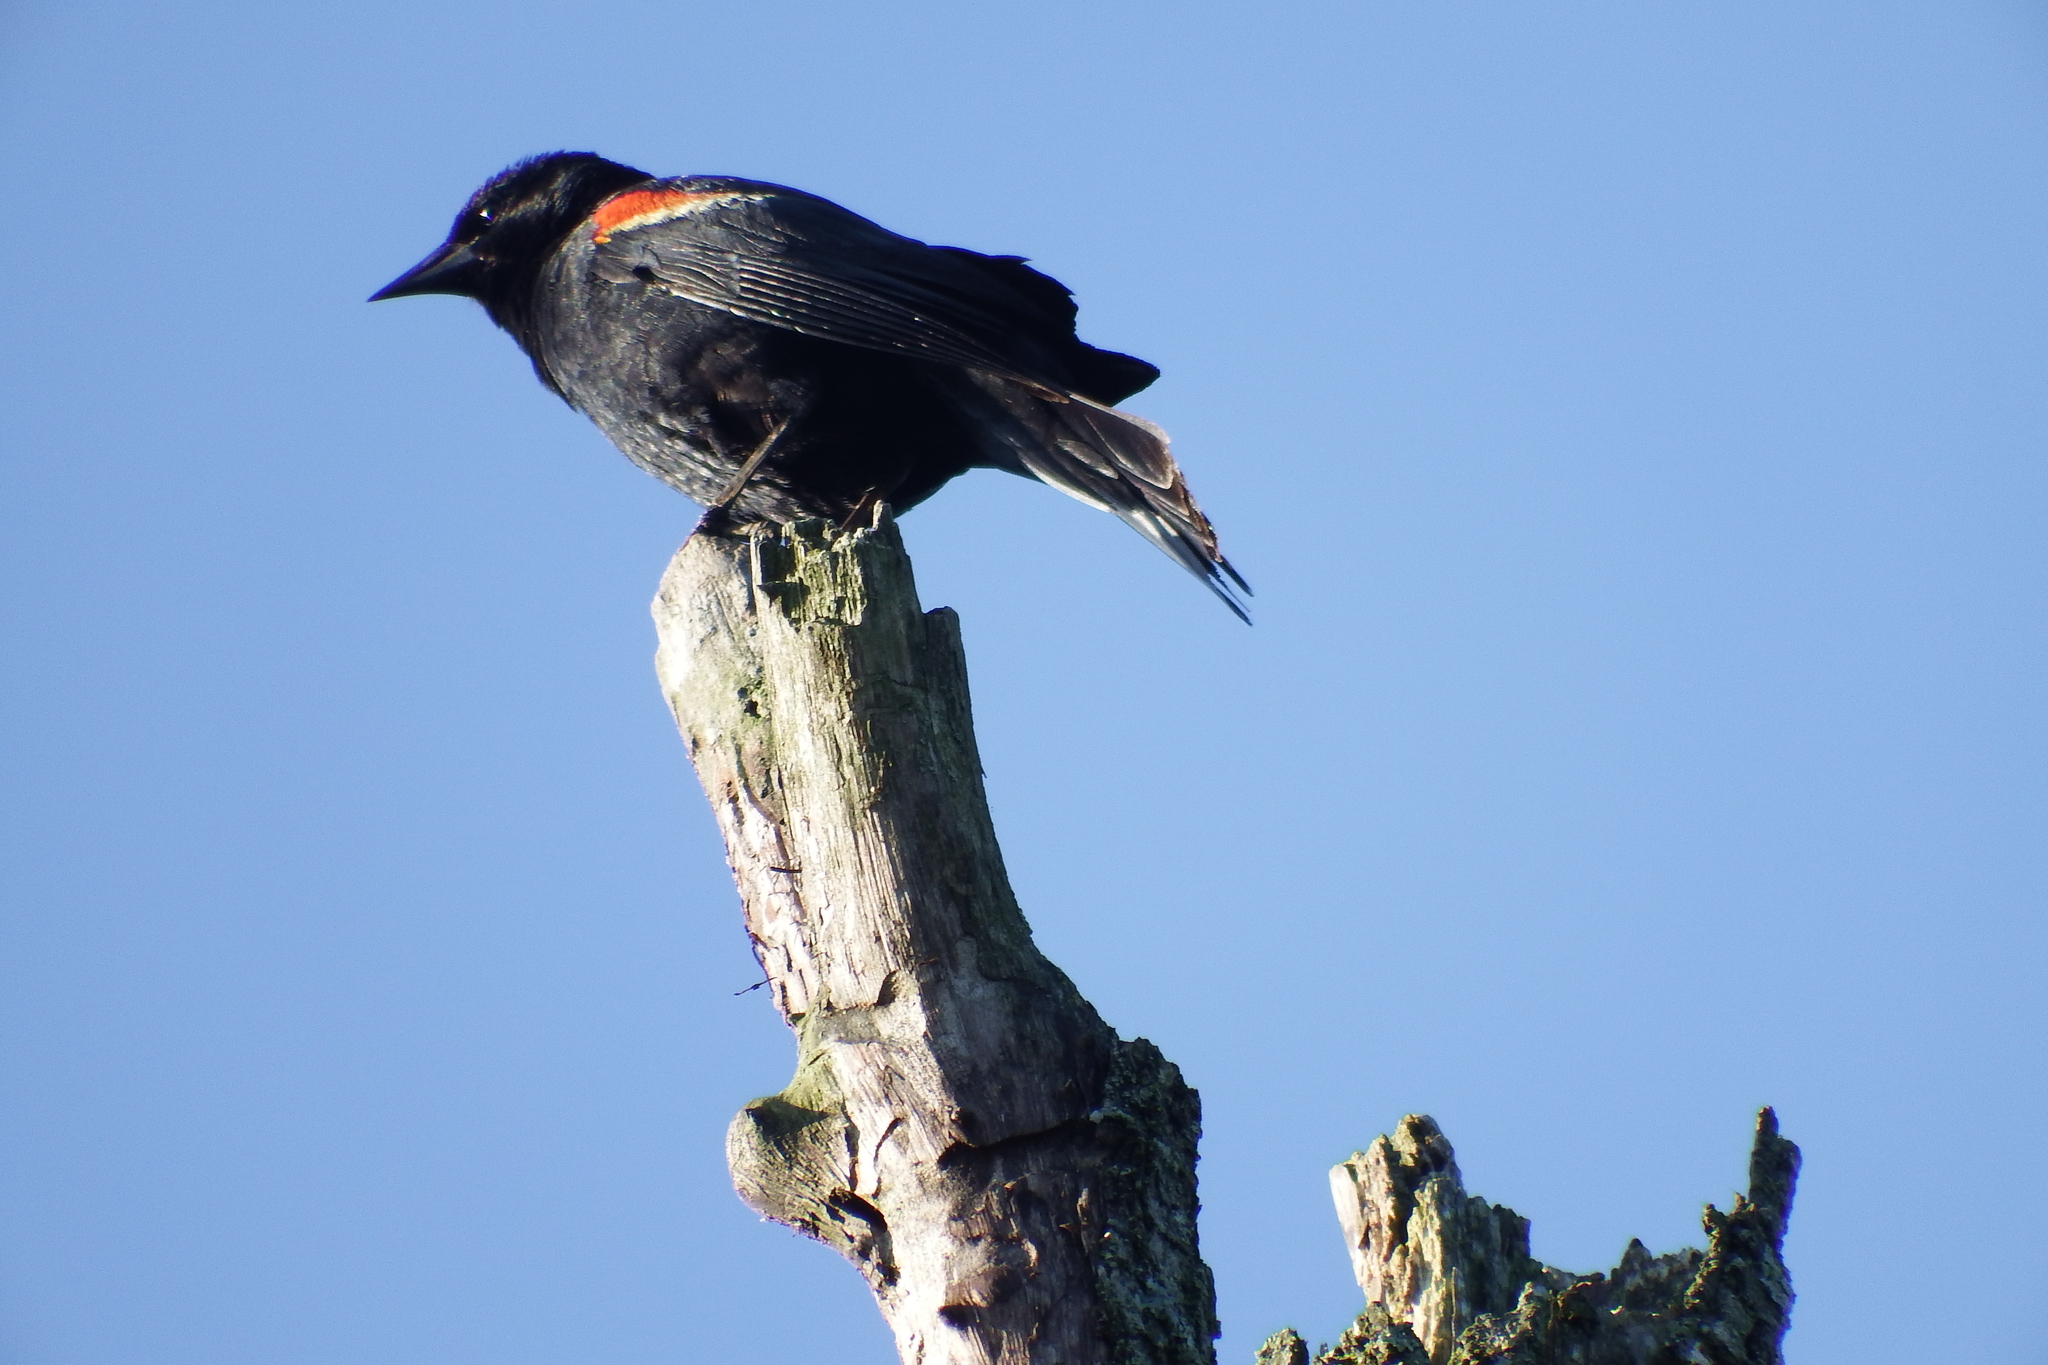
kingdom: Animalia
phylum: Chordata
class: Aves
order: Passeriformes
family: Icteridae
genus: Agelaius
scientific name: Agelaius phoeniceus
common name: Red-winged blackbird
